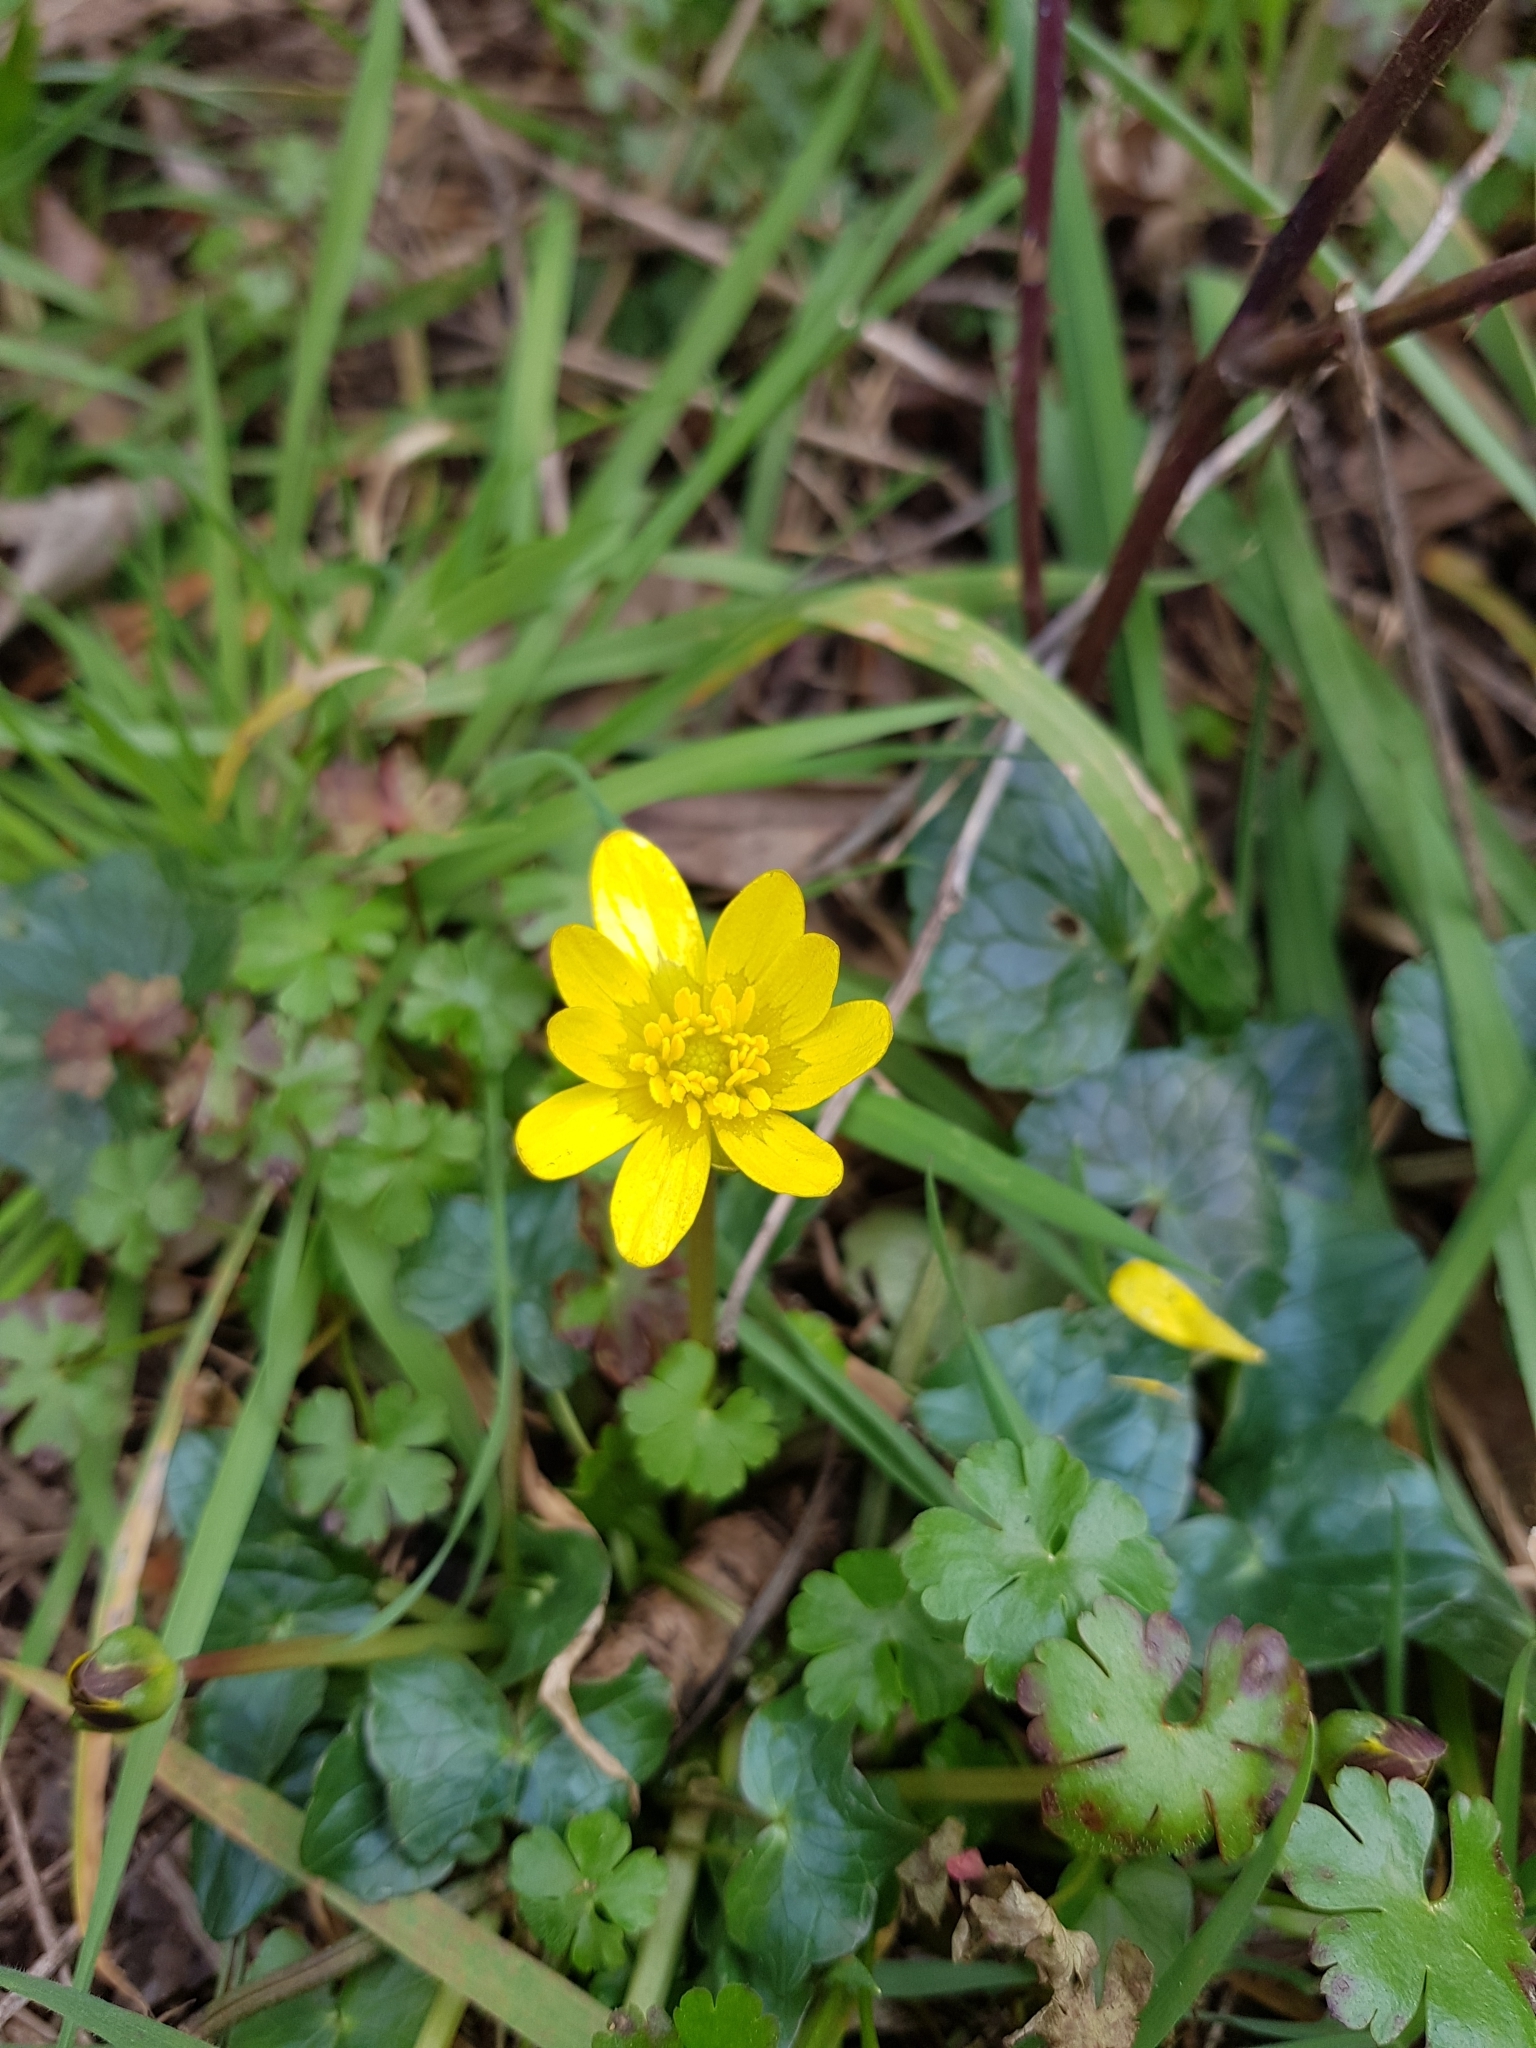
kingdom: Plantae
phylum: Tracheophyta
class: Magnoliopsida
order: Ranunculales
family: Ranunculaceae
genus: Ficaria
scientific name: Ficaria verna
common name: Lesser celandine
